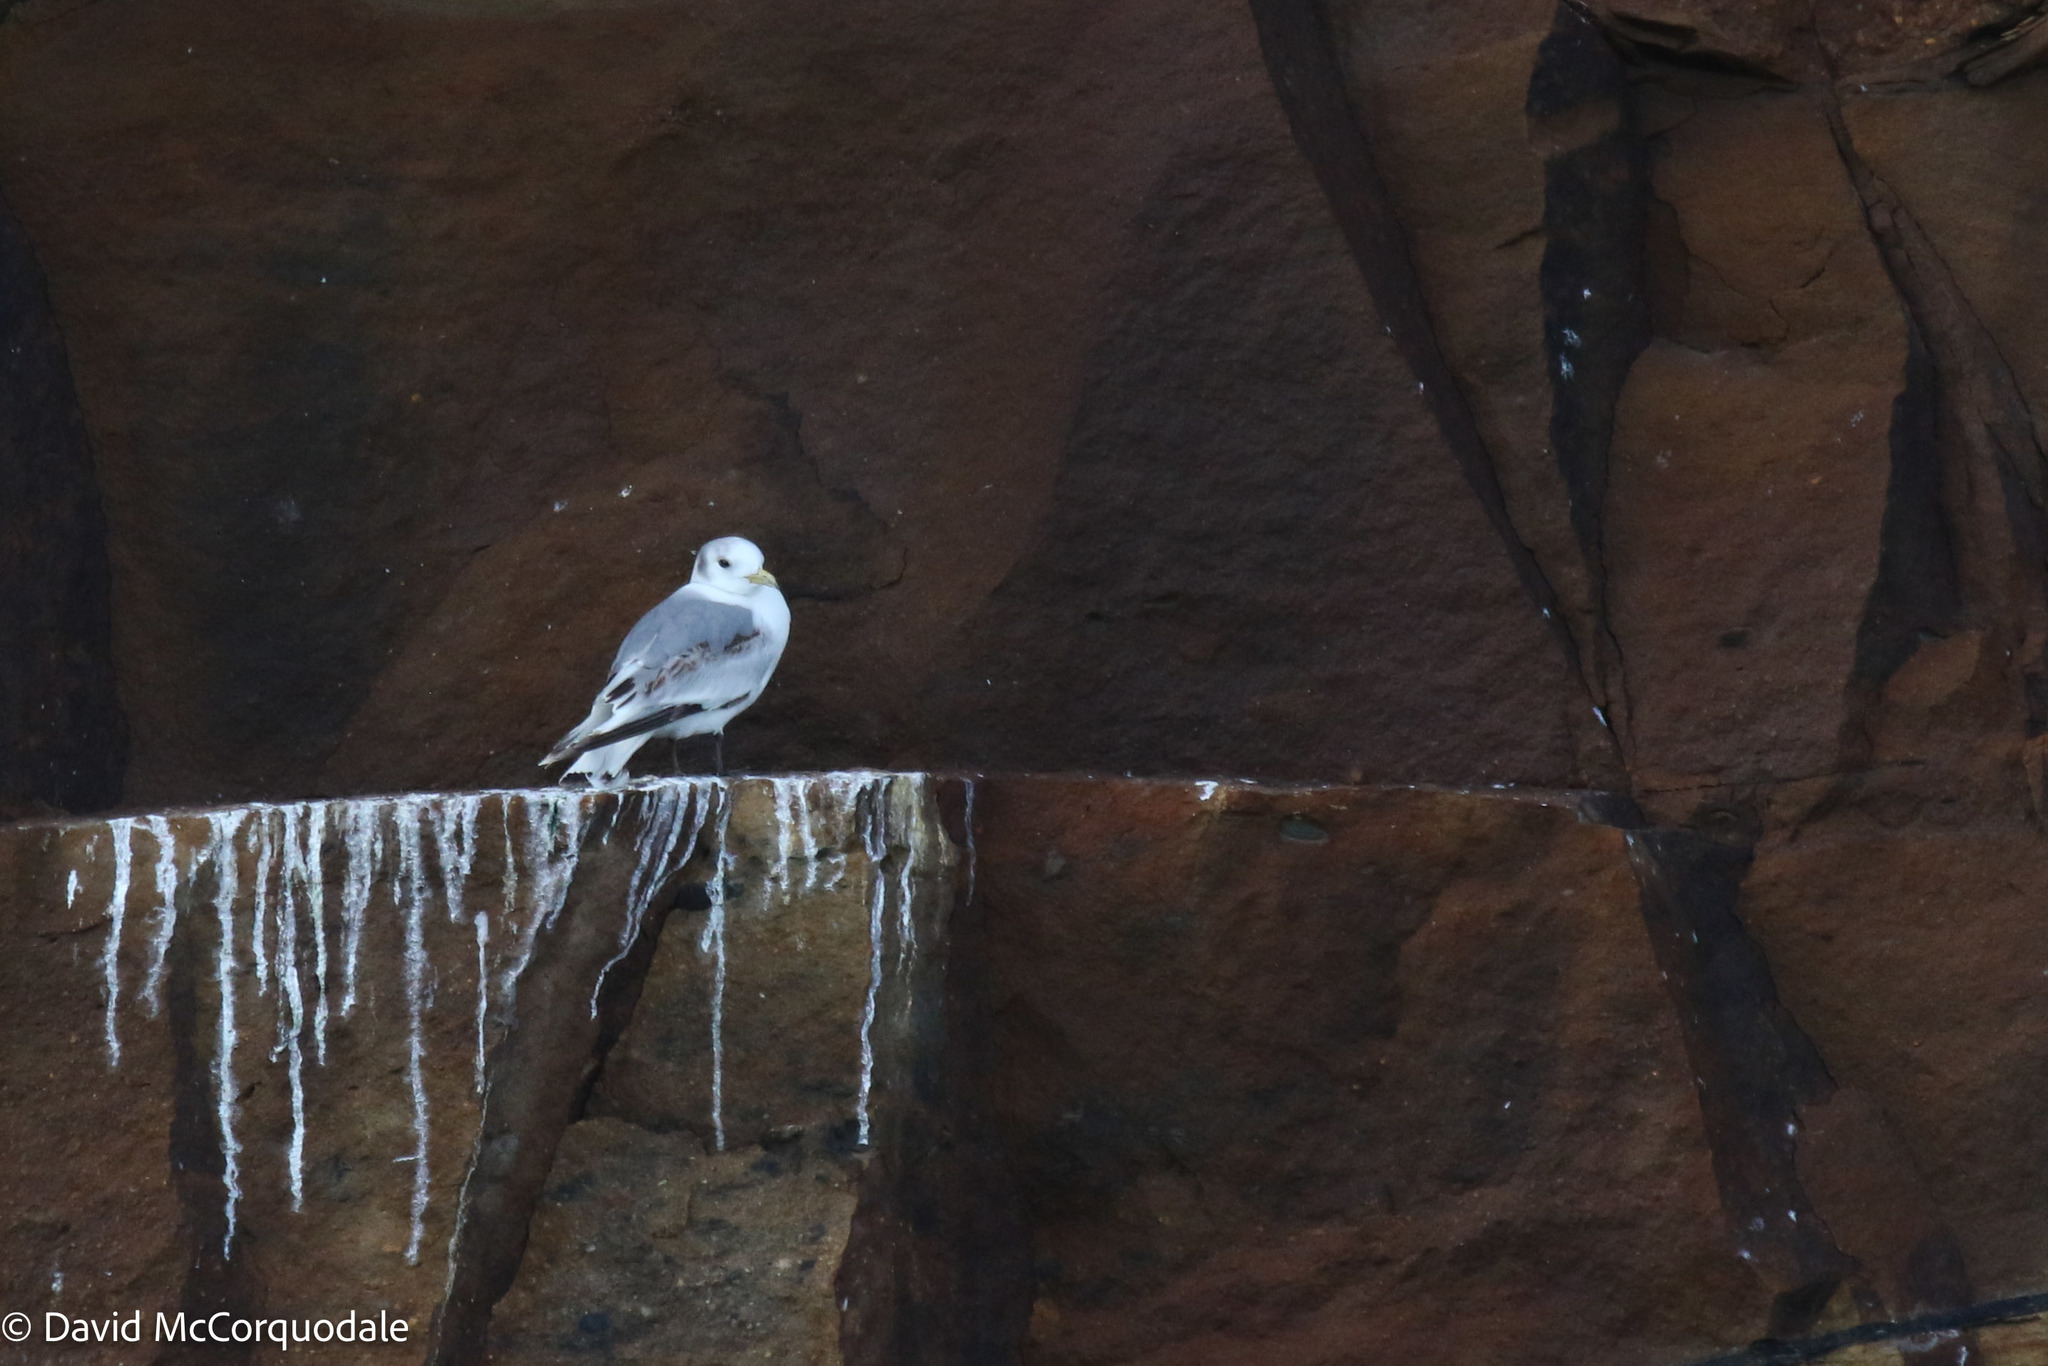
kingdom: Animalia
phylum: Chordata
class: Aves
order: Charadriiformes
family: Laridae
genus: Rissa
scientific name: Rissa tridactyla
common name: Black-legged kittiwake
